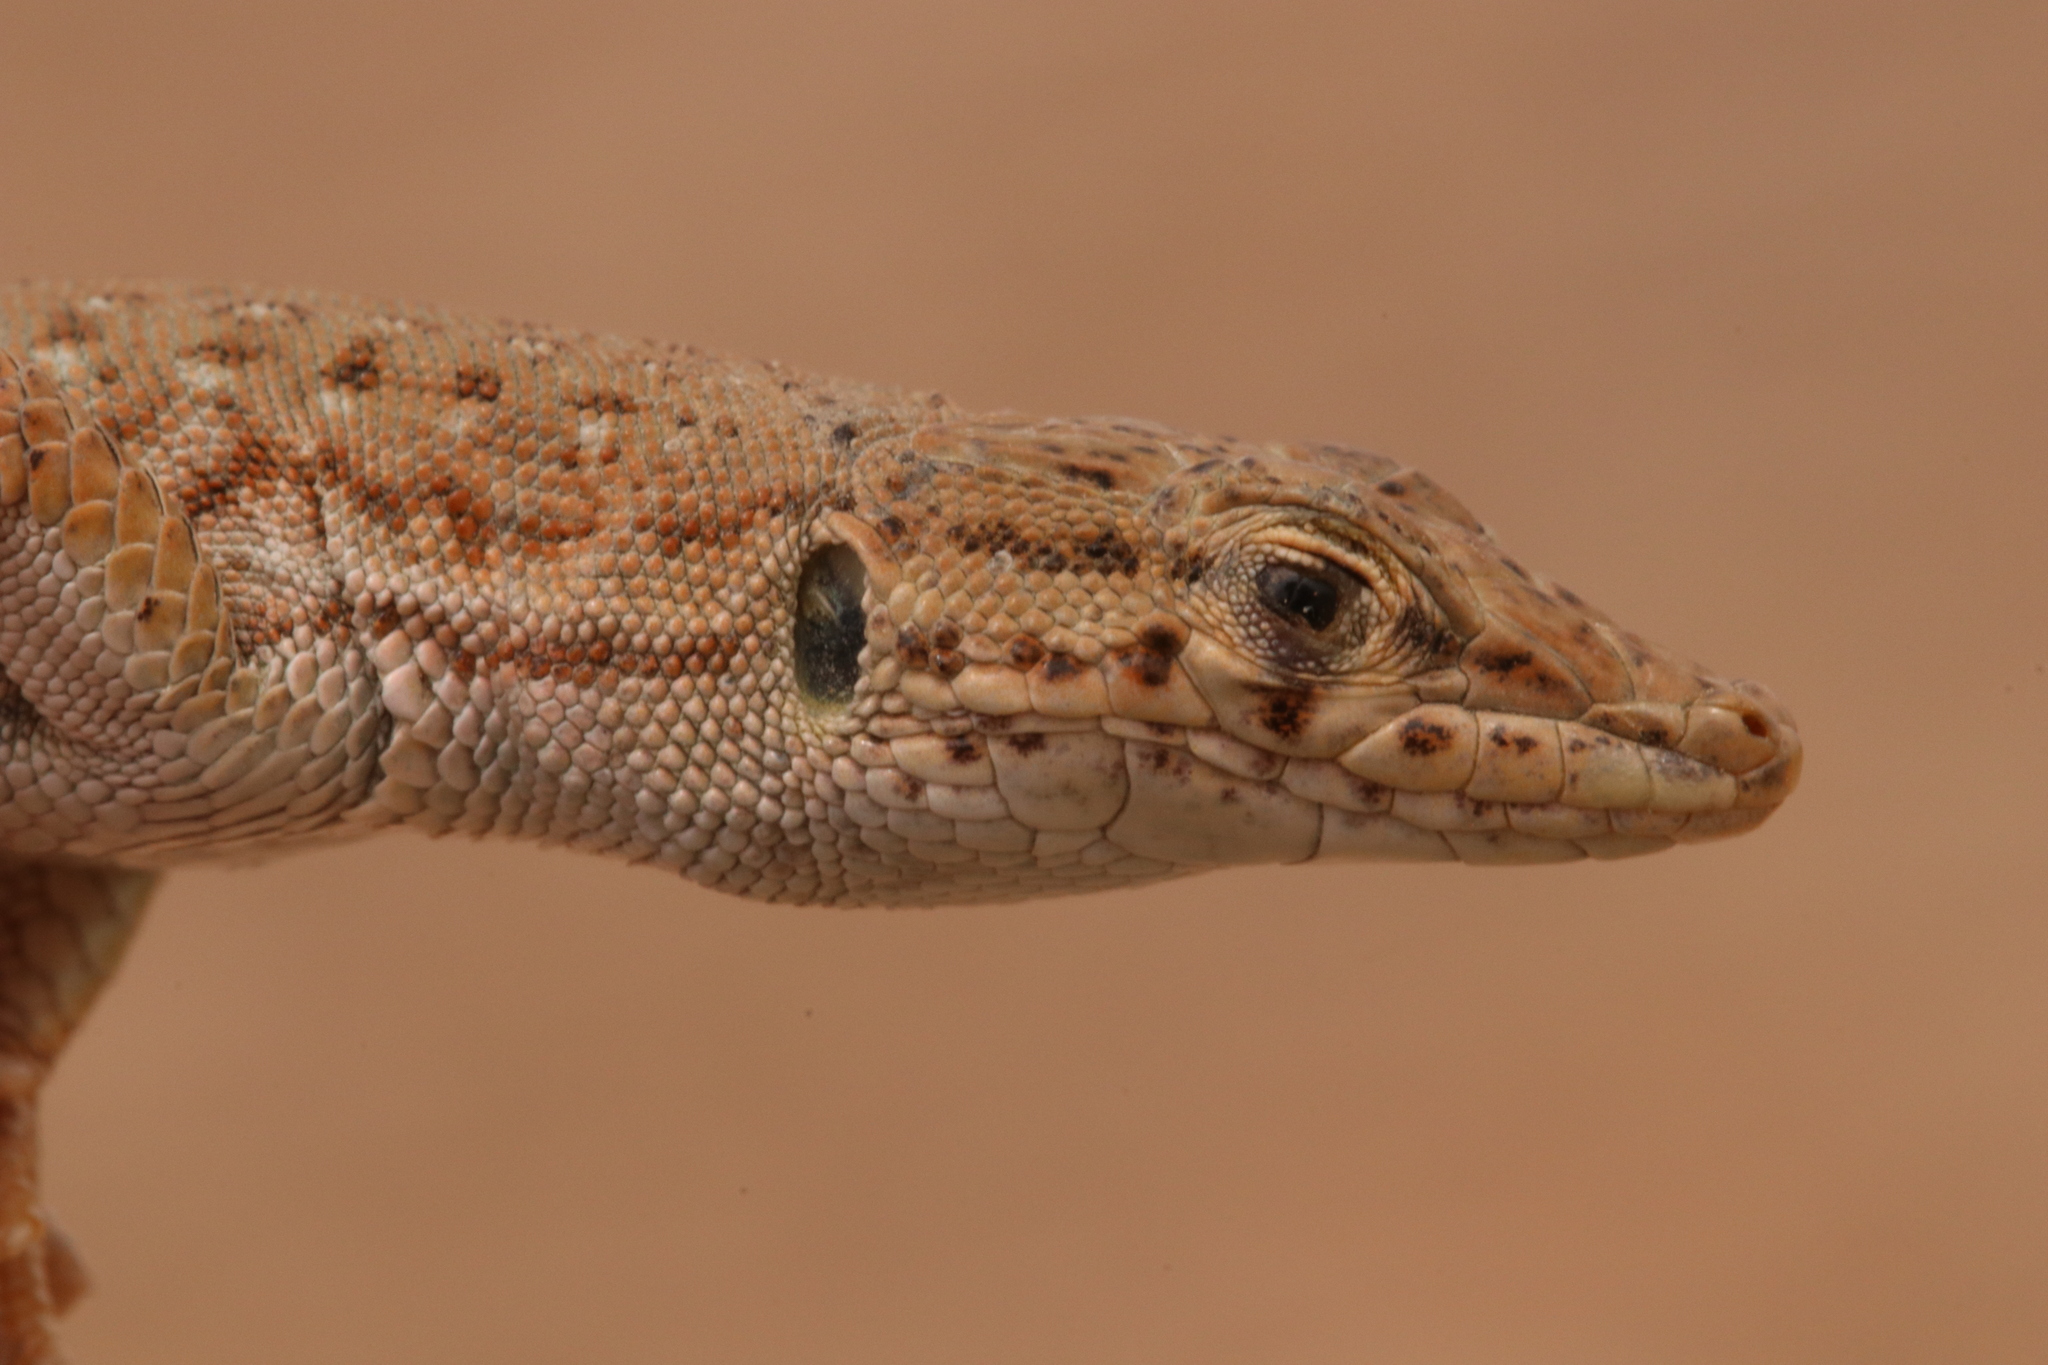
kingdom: Animalia
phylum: Chordata
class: Squamata
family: Lacertidae
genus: Mesalina
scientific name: Mesalina guttulata
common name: Desert lacerta
